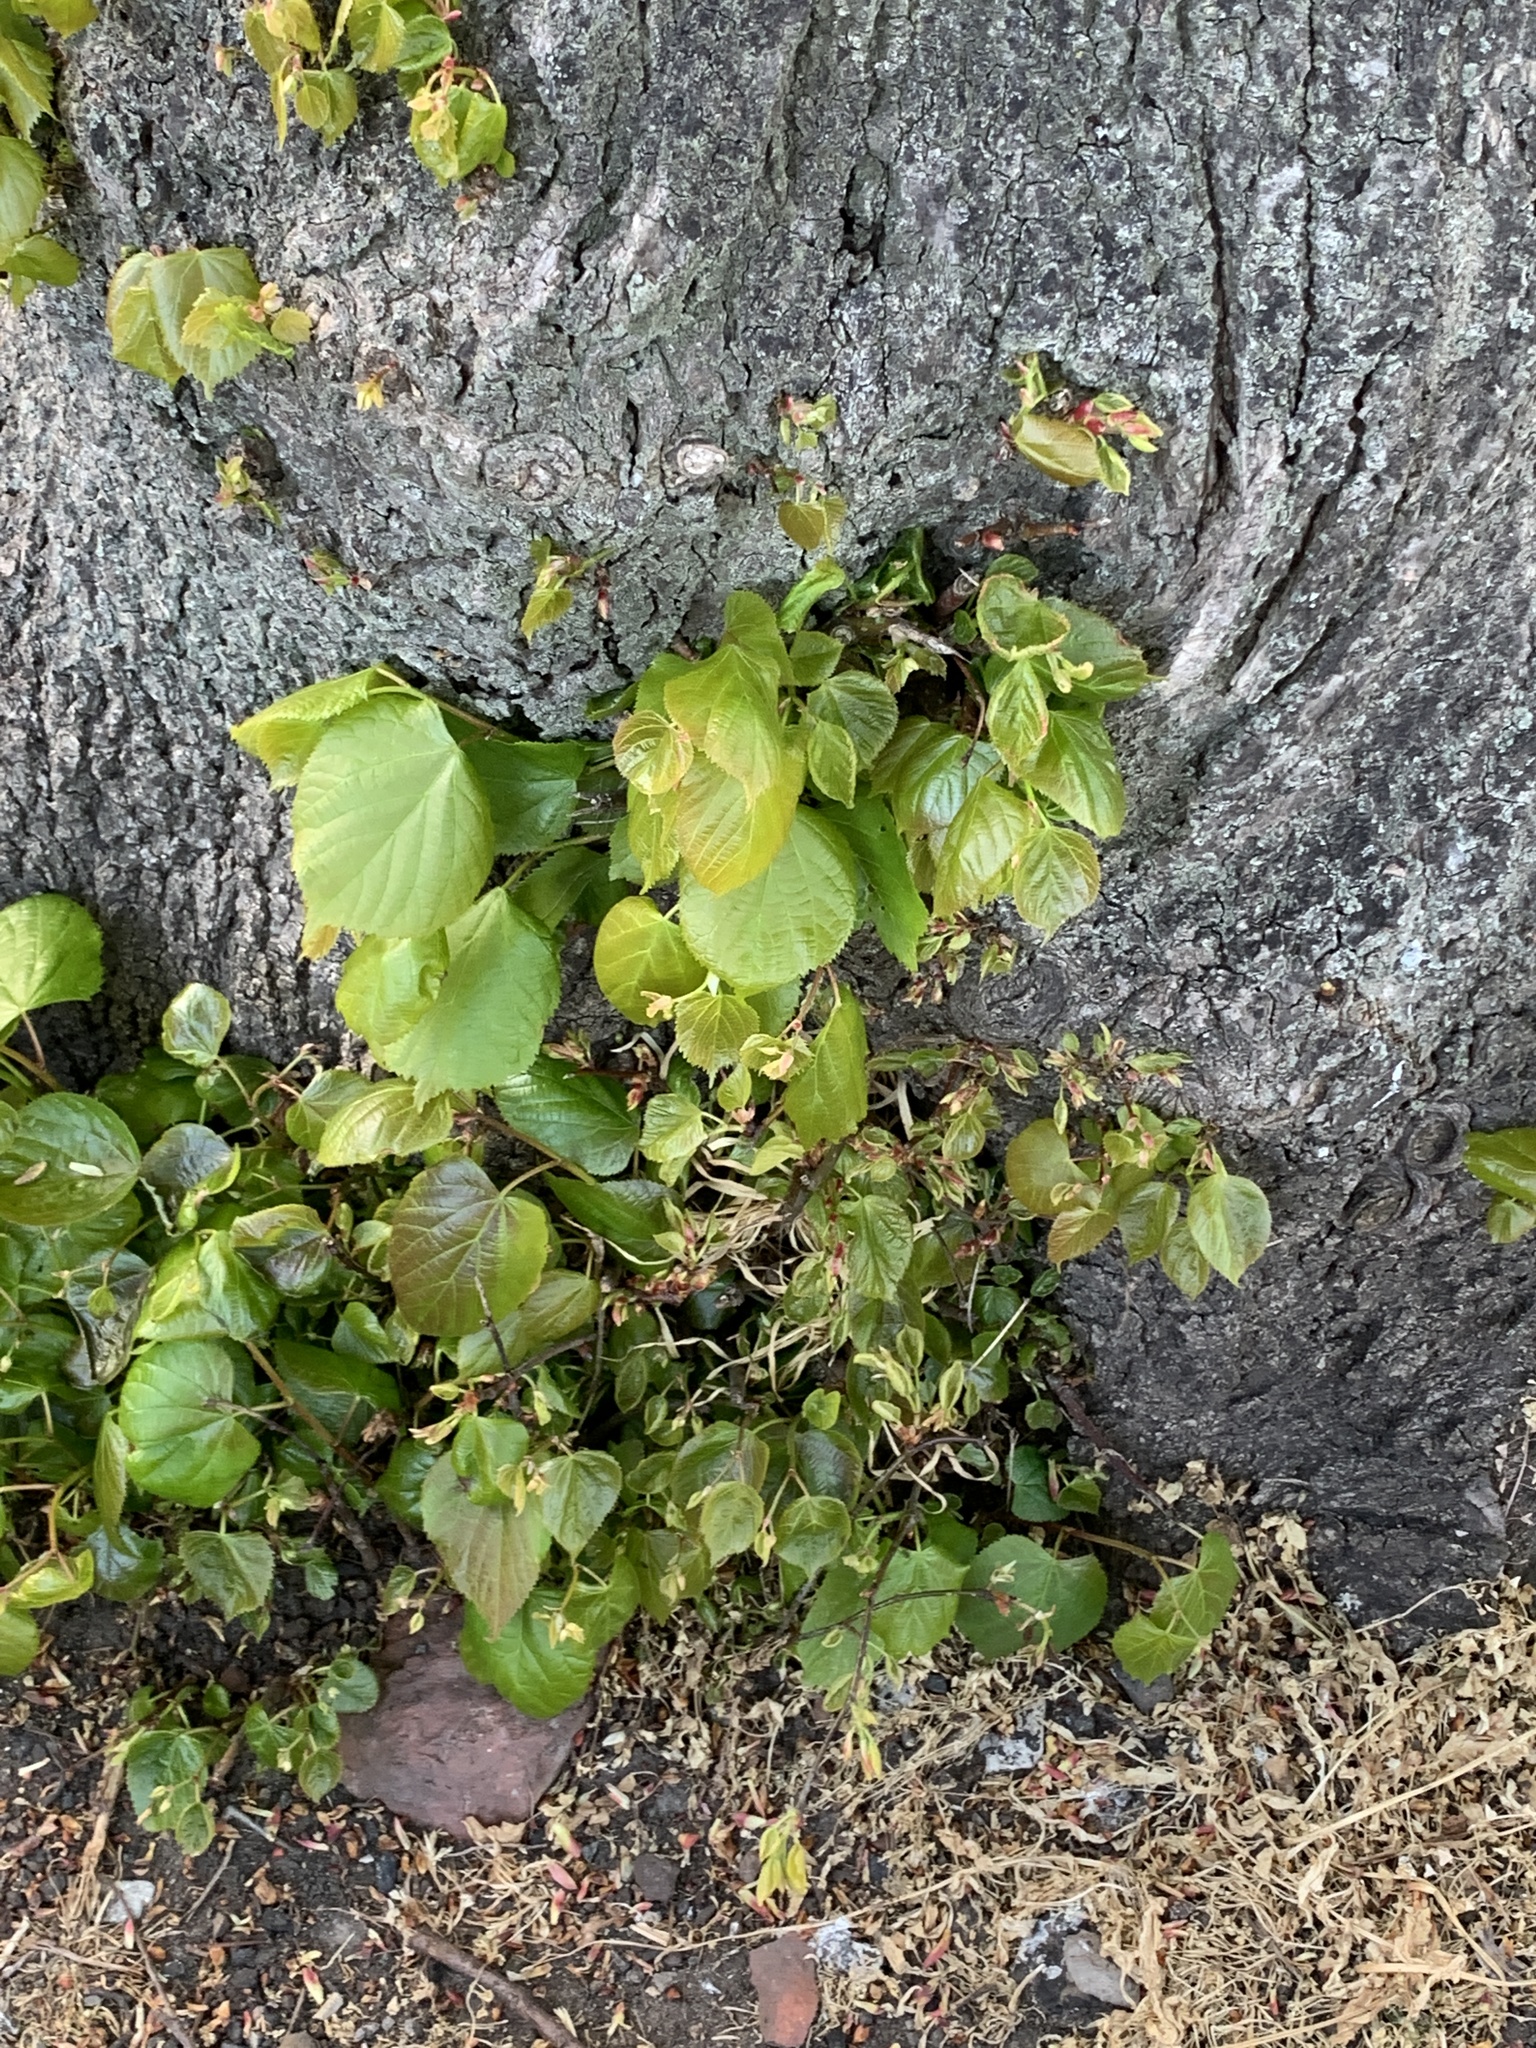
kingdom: Plantae
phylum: Tracheophyta
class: Magnoliopsida
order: Malvales
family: Malvaceae
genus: Tilia
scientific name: Tilia europaea
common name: European linden
